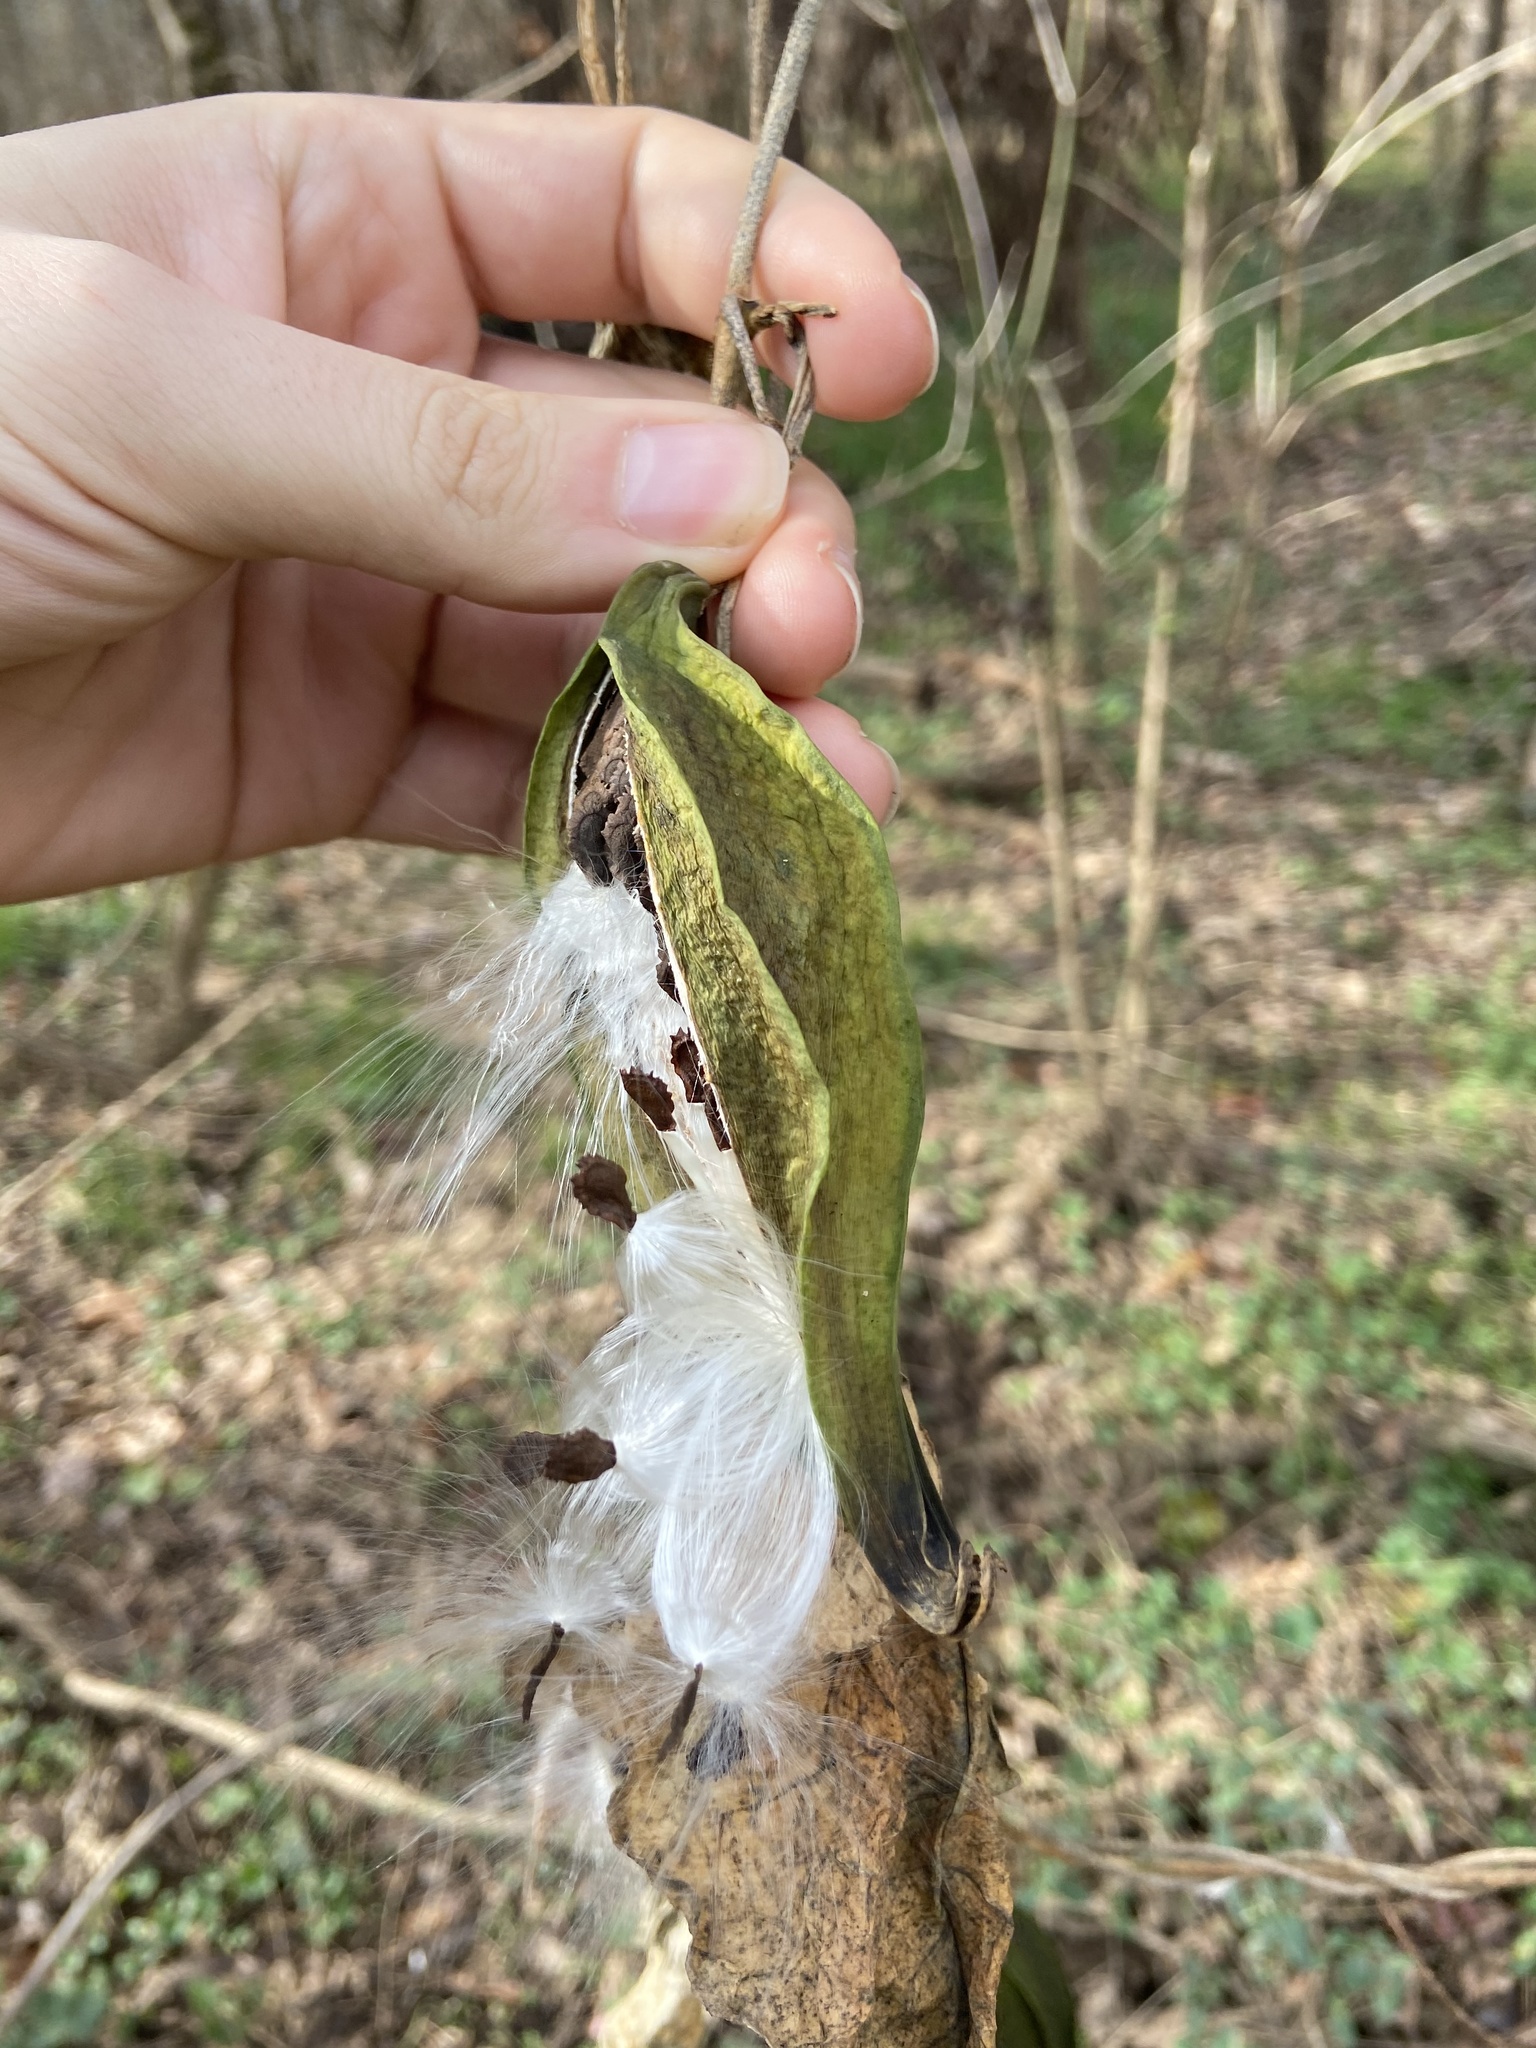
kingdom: Plantae
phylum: Tracheophyta
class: Magnoliopsida
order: Gentianales
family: Apocynaceae
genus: Gonolobus
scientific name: Gonolobus suberosus
